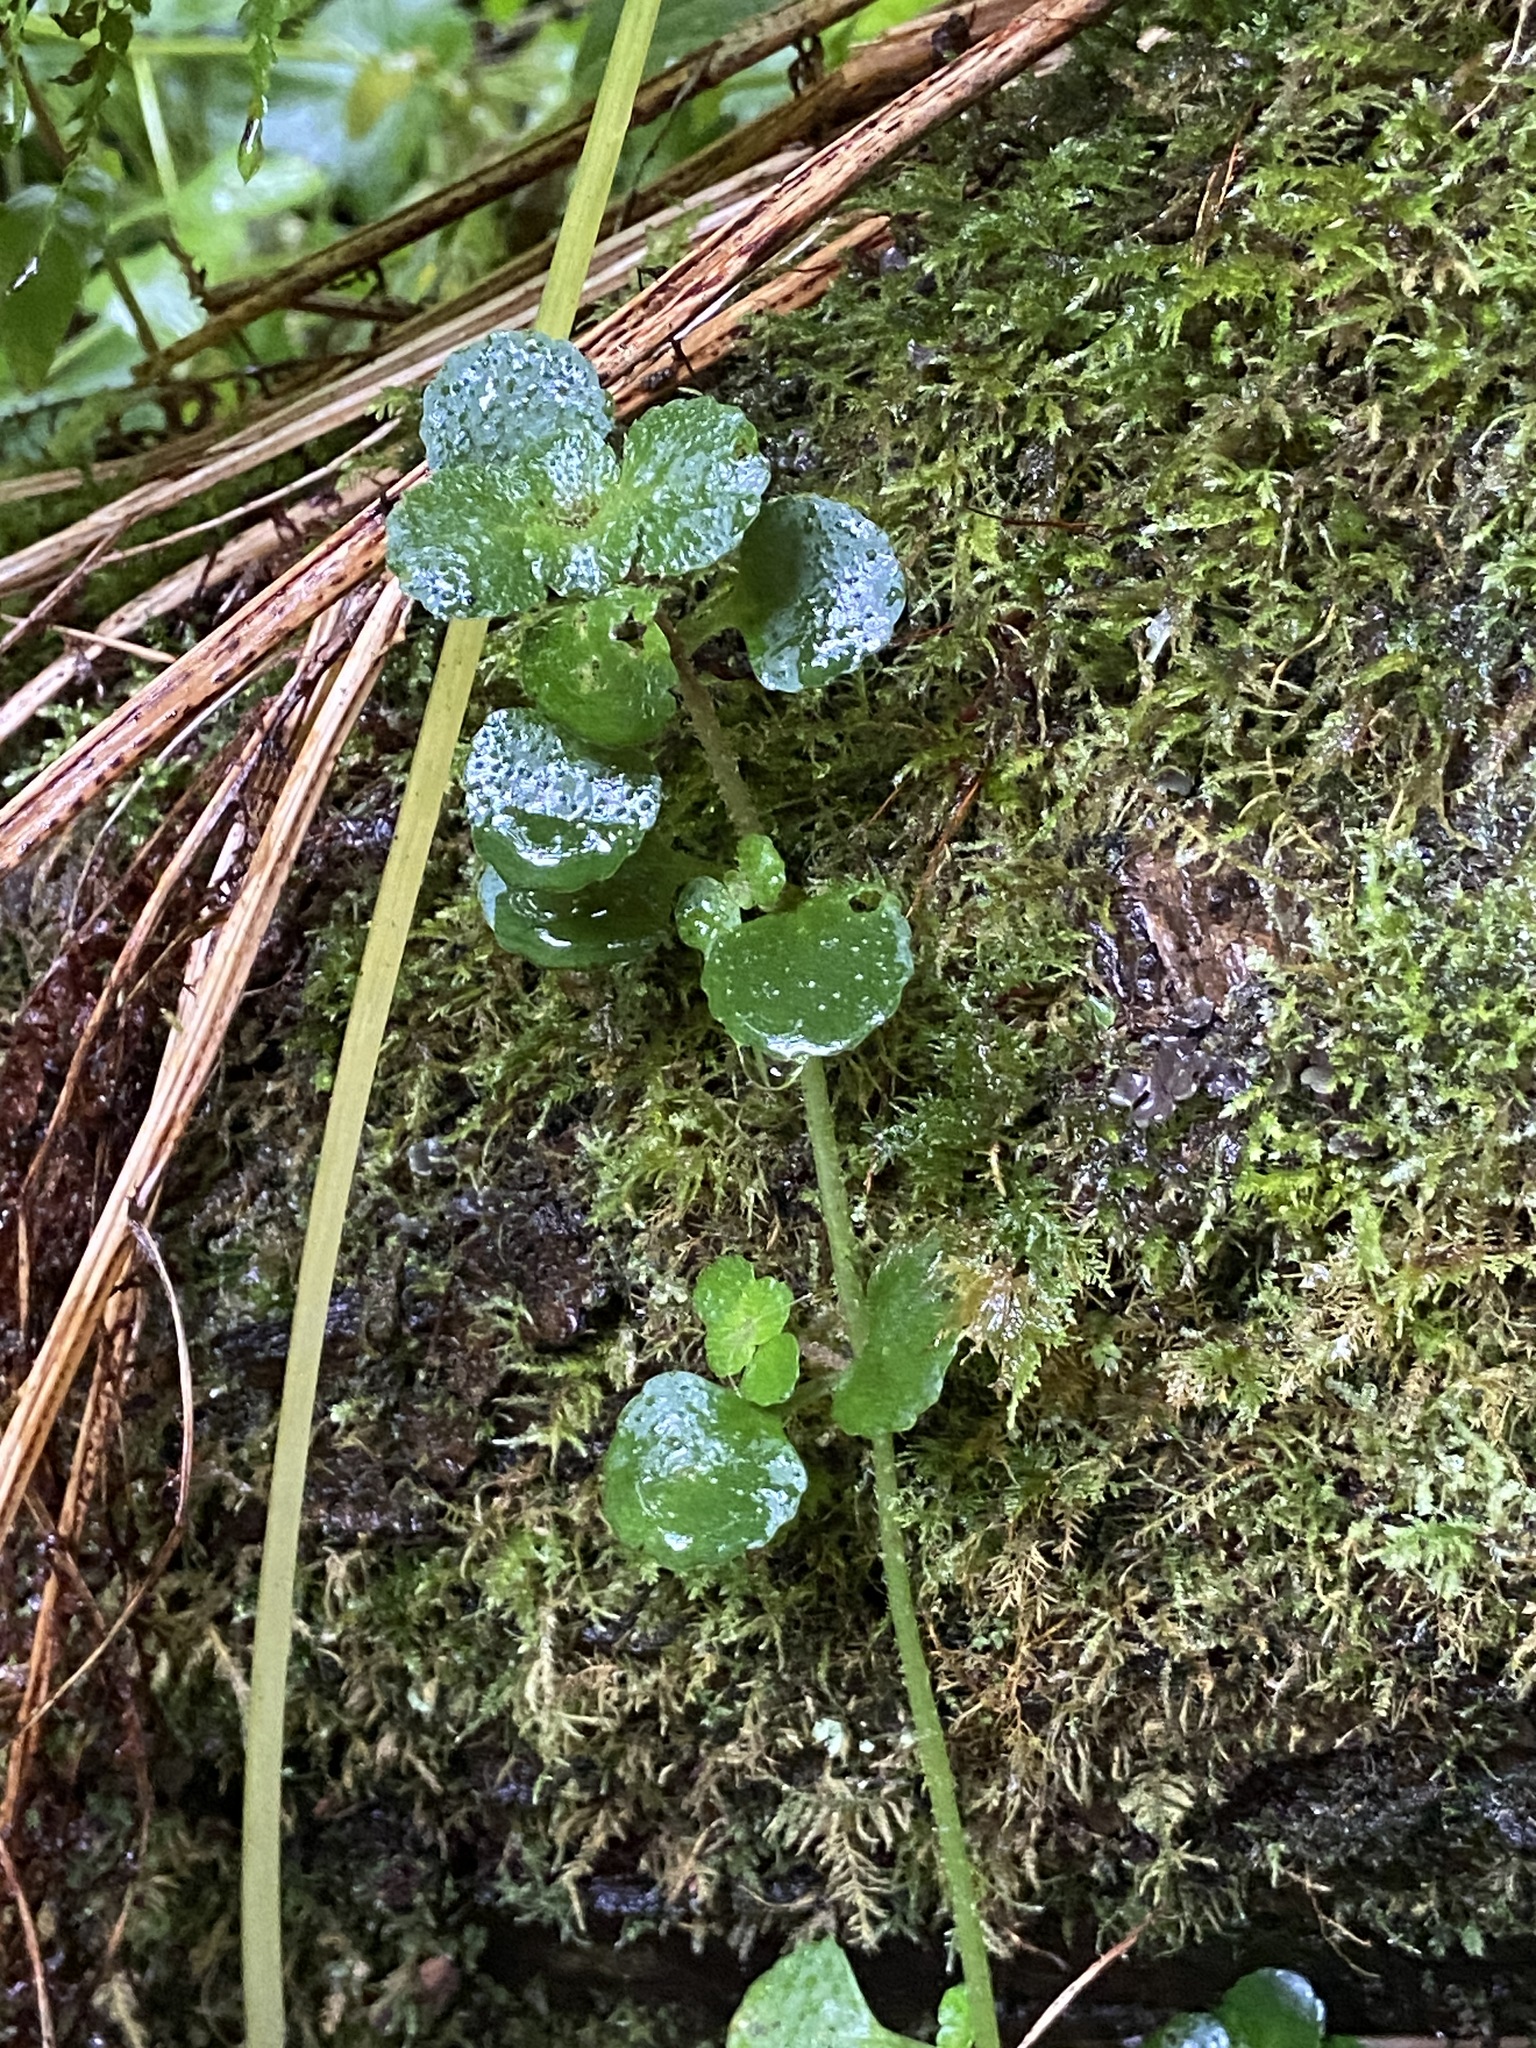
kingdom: Plantae
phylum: Tracheophyta
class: Magnoliopsida
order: Saxifragales
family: Saxifragaceae
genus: Chrysosplenium
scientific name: Chrysosplenium oppositifolium
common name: Opposite-leaved golden-saxifrage
